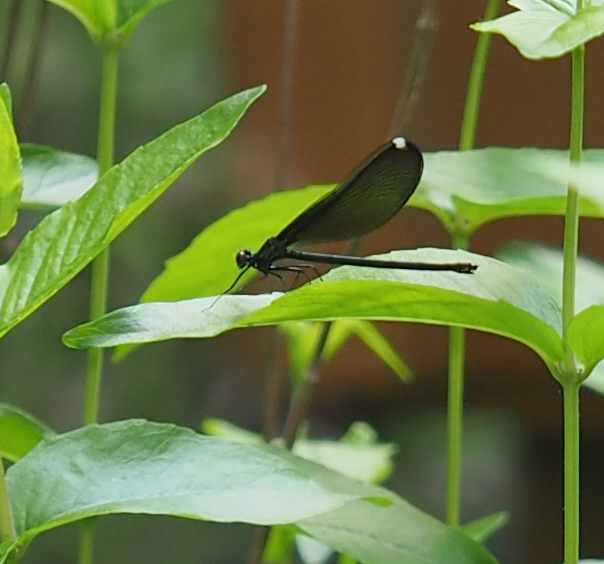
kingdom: Animalia
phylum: Arthropoda
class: Insecta
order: Odonata
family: Calopterygidae
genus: Calopteryx
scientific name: Calopteryx maculata
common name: Ebony jewelwing
